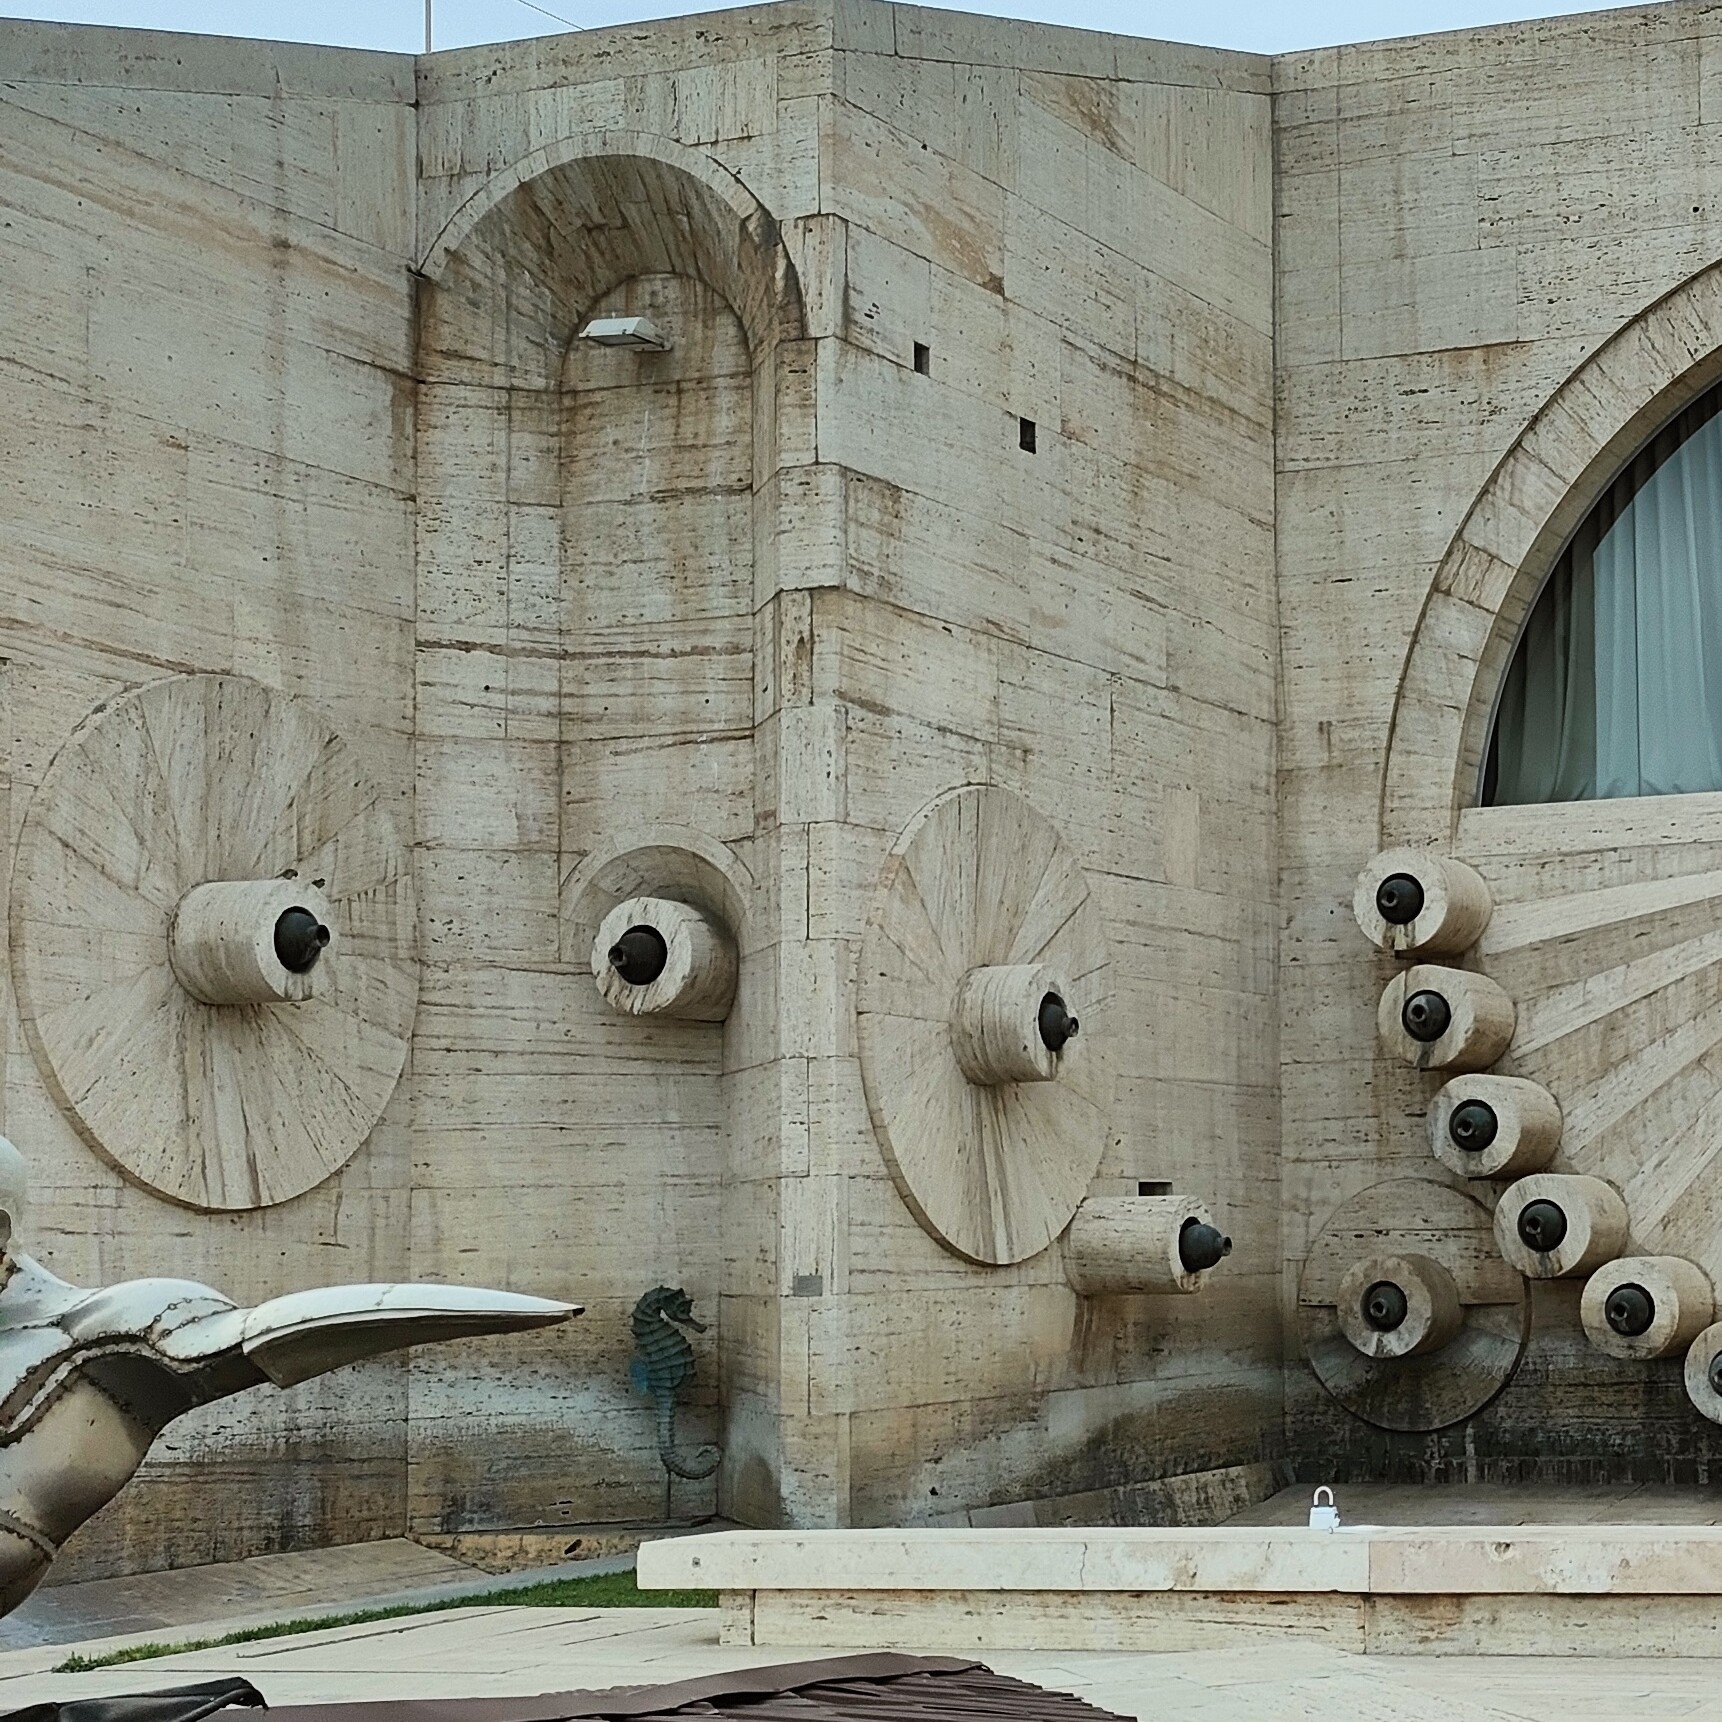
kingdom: Animalia
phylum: Chordata
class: Aves
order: Passeriformes
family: Passeridae
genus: Passer
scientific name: Passer domesticus
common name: House sparrow
